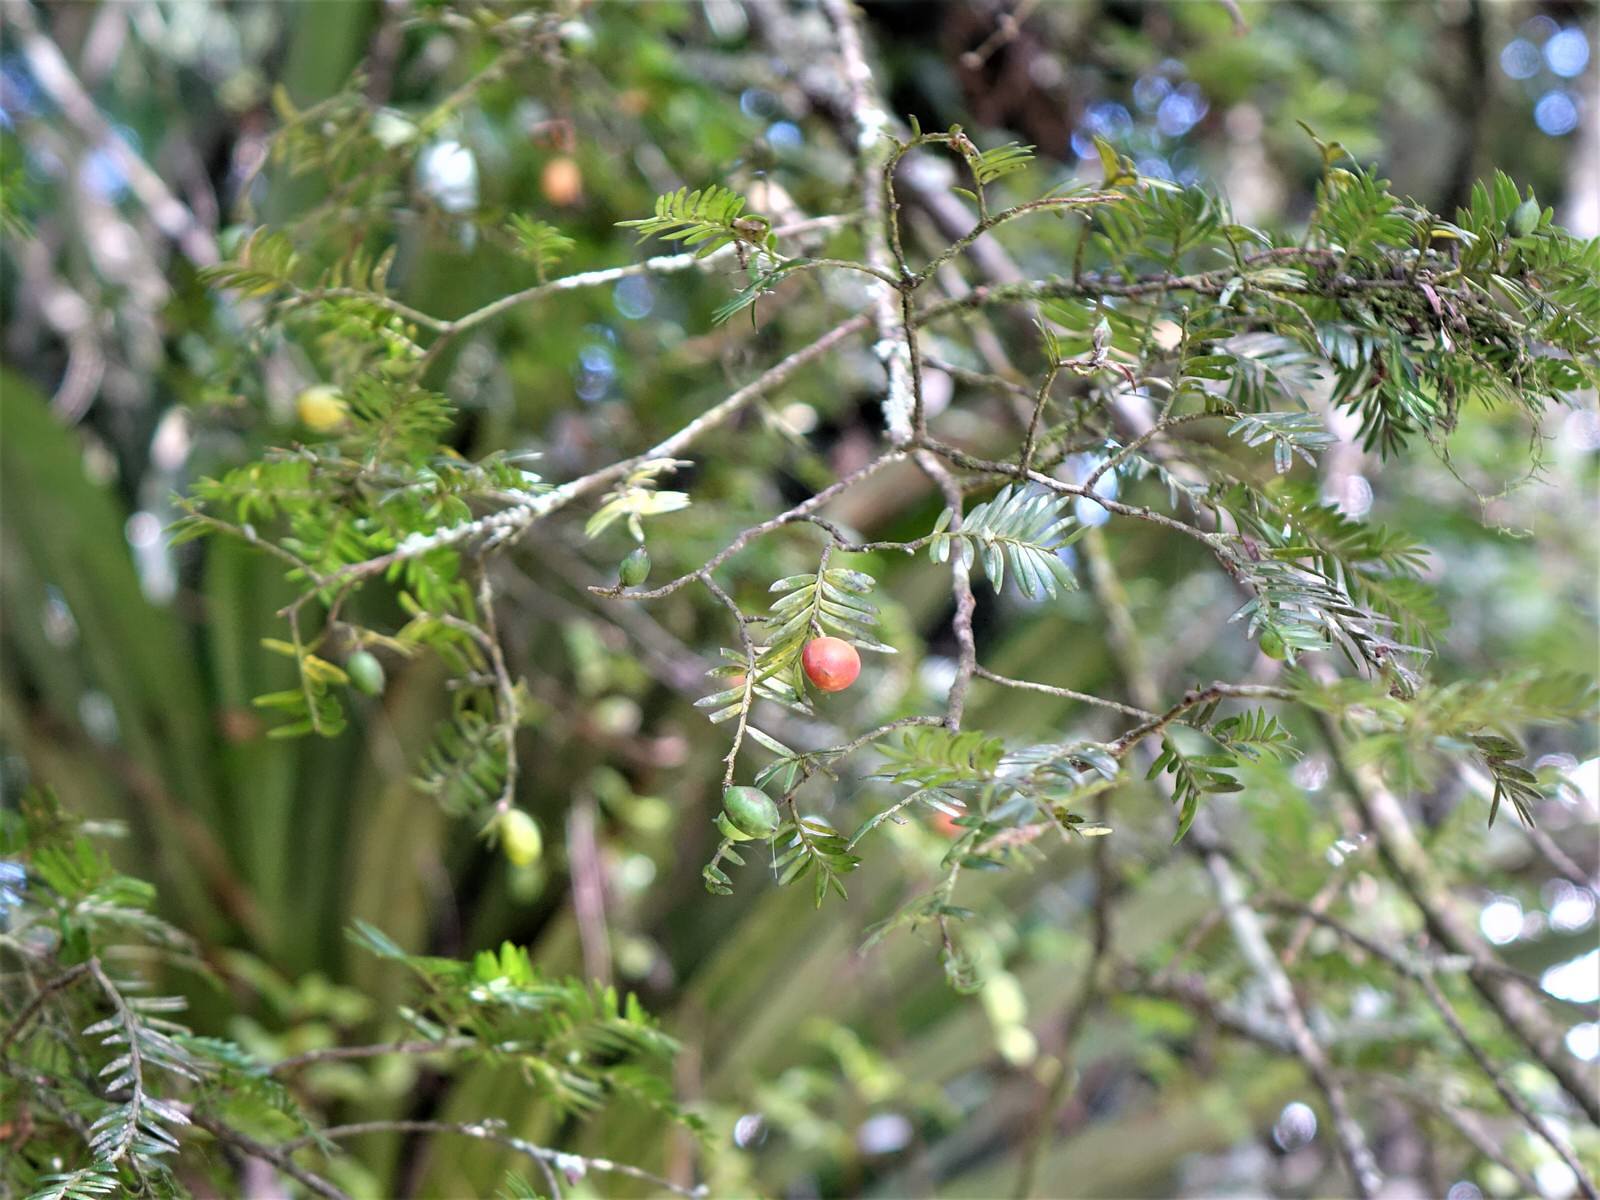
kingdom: Plantae
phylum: Tracheophyta
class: Pinopsida
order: Pinales
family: Podocarpaceae
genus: Prumnopitys
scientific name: Prumnopitys ferruginea
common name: Brown pine
